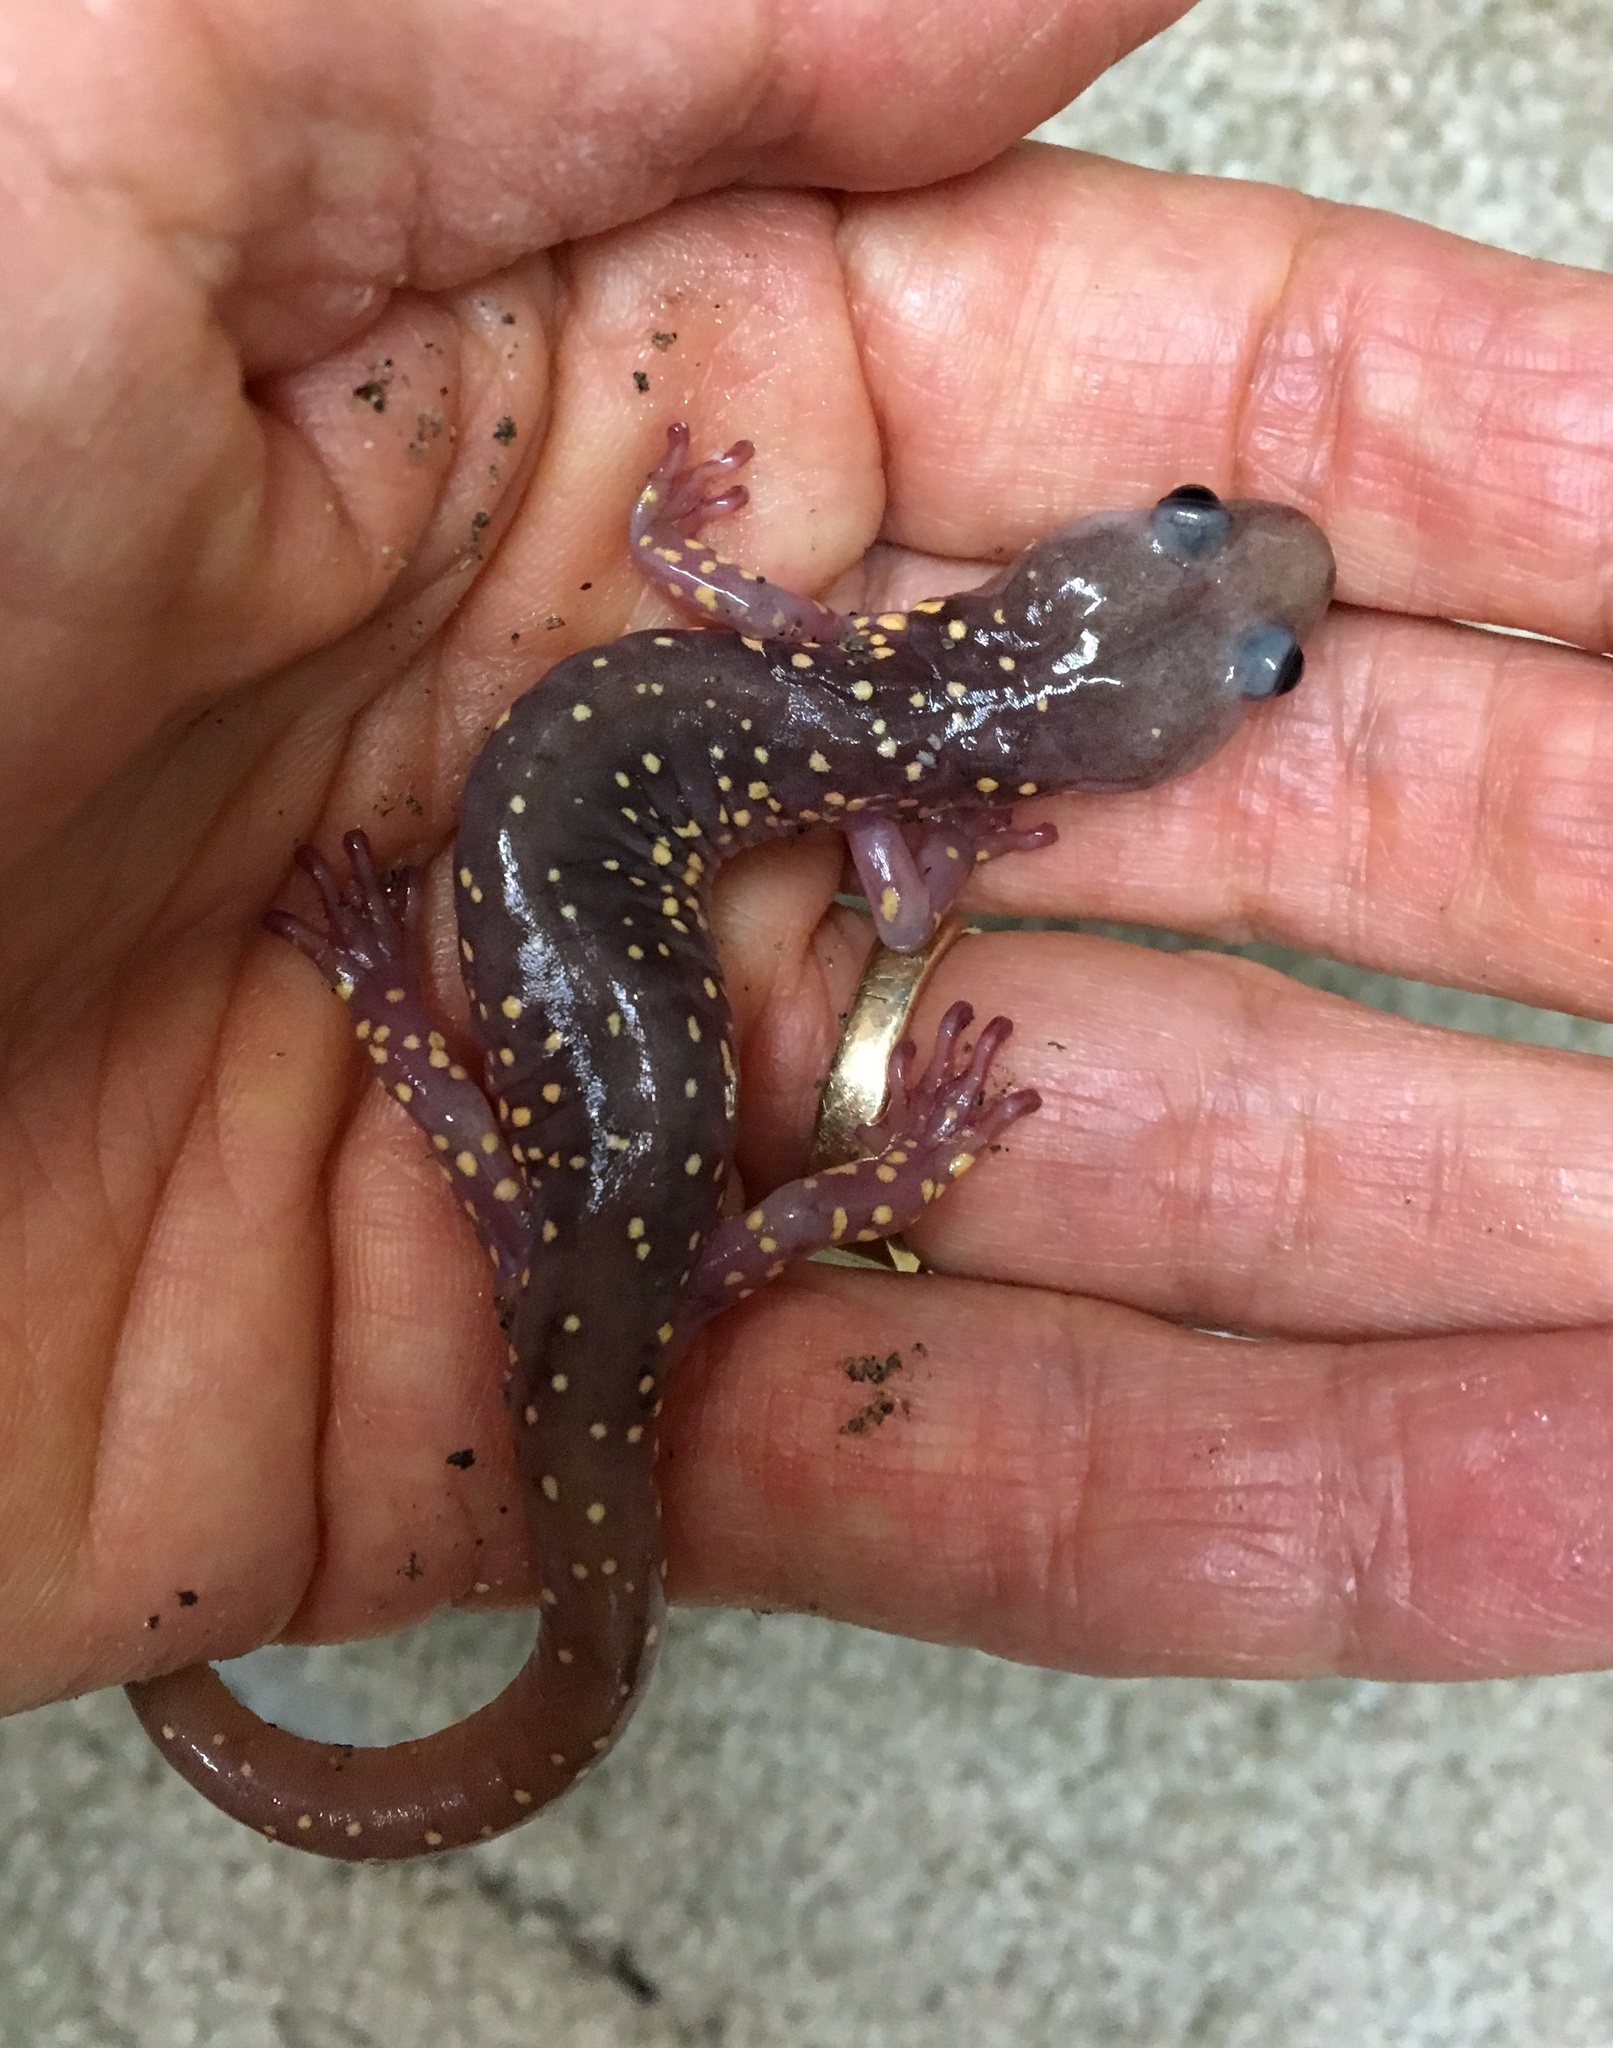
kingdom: Animalia
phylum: Chordata
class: Amphibia
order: Caudata
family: Plethodontidae
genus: Aneides
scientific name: Aneides lugubris
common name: Arboreal salamander
